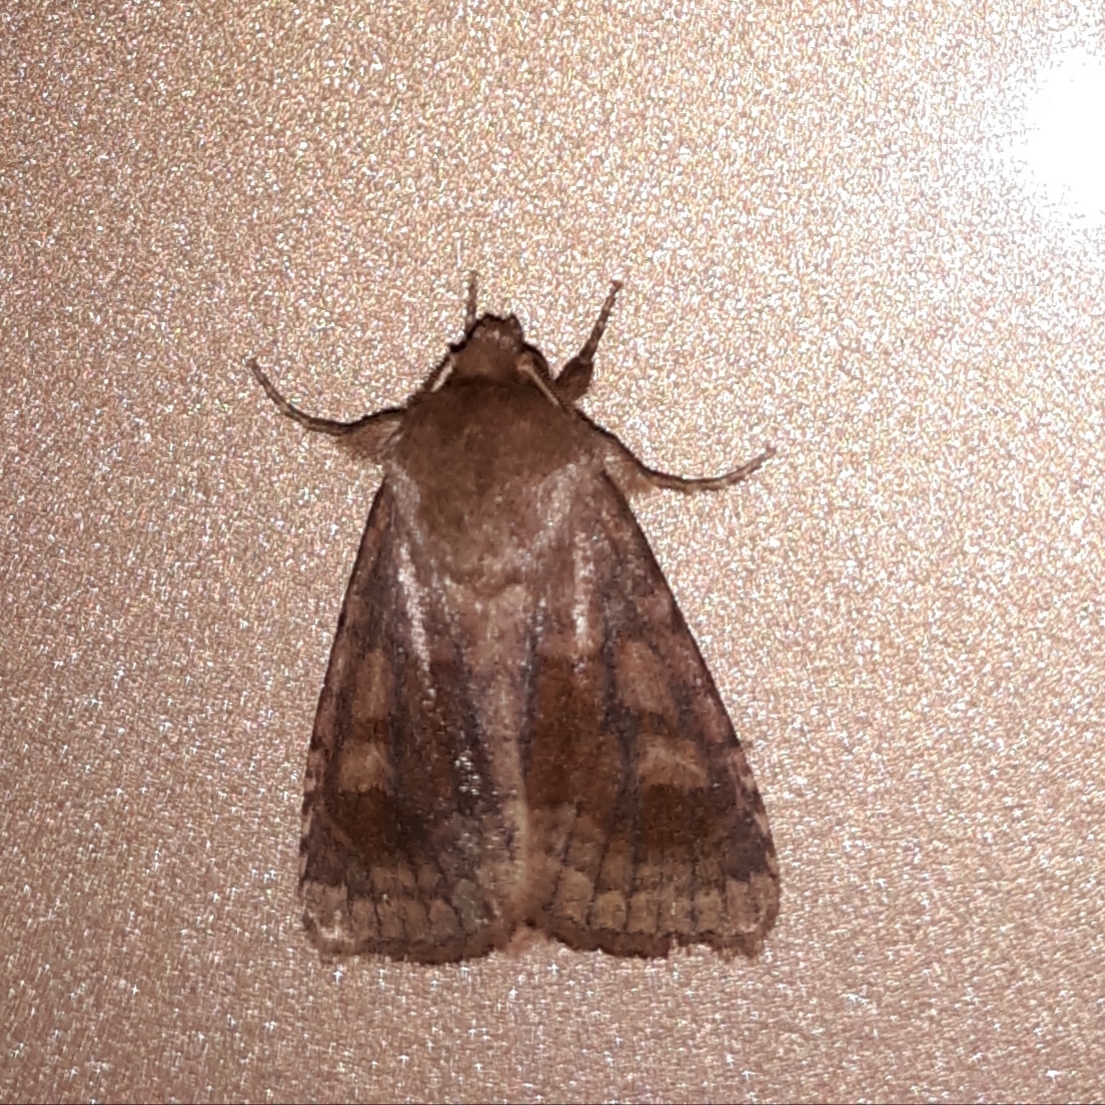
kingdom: Animalia
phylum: Arthropoda
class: Insecta
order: Lepidoptera
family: Noctuidae
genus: Nephelodes
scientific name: Nephelodes minians
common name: Bronzed cutworm
